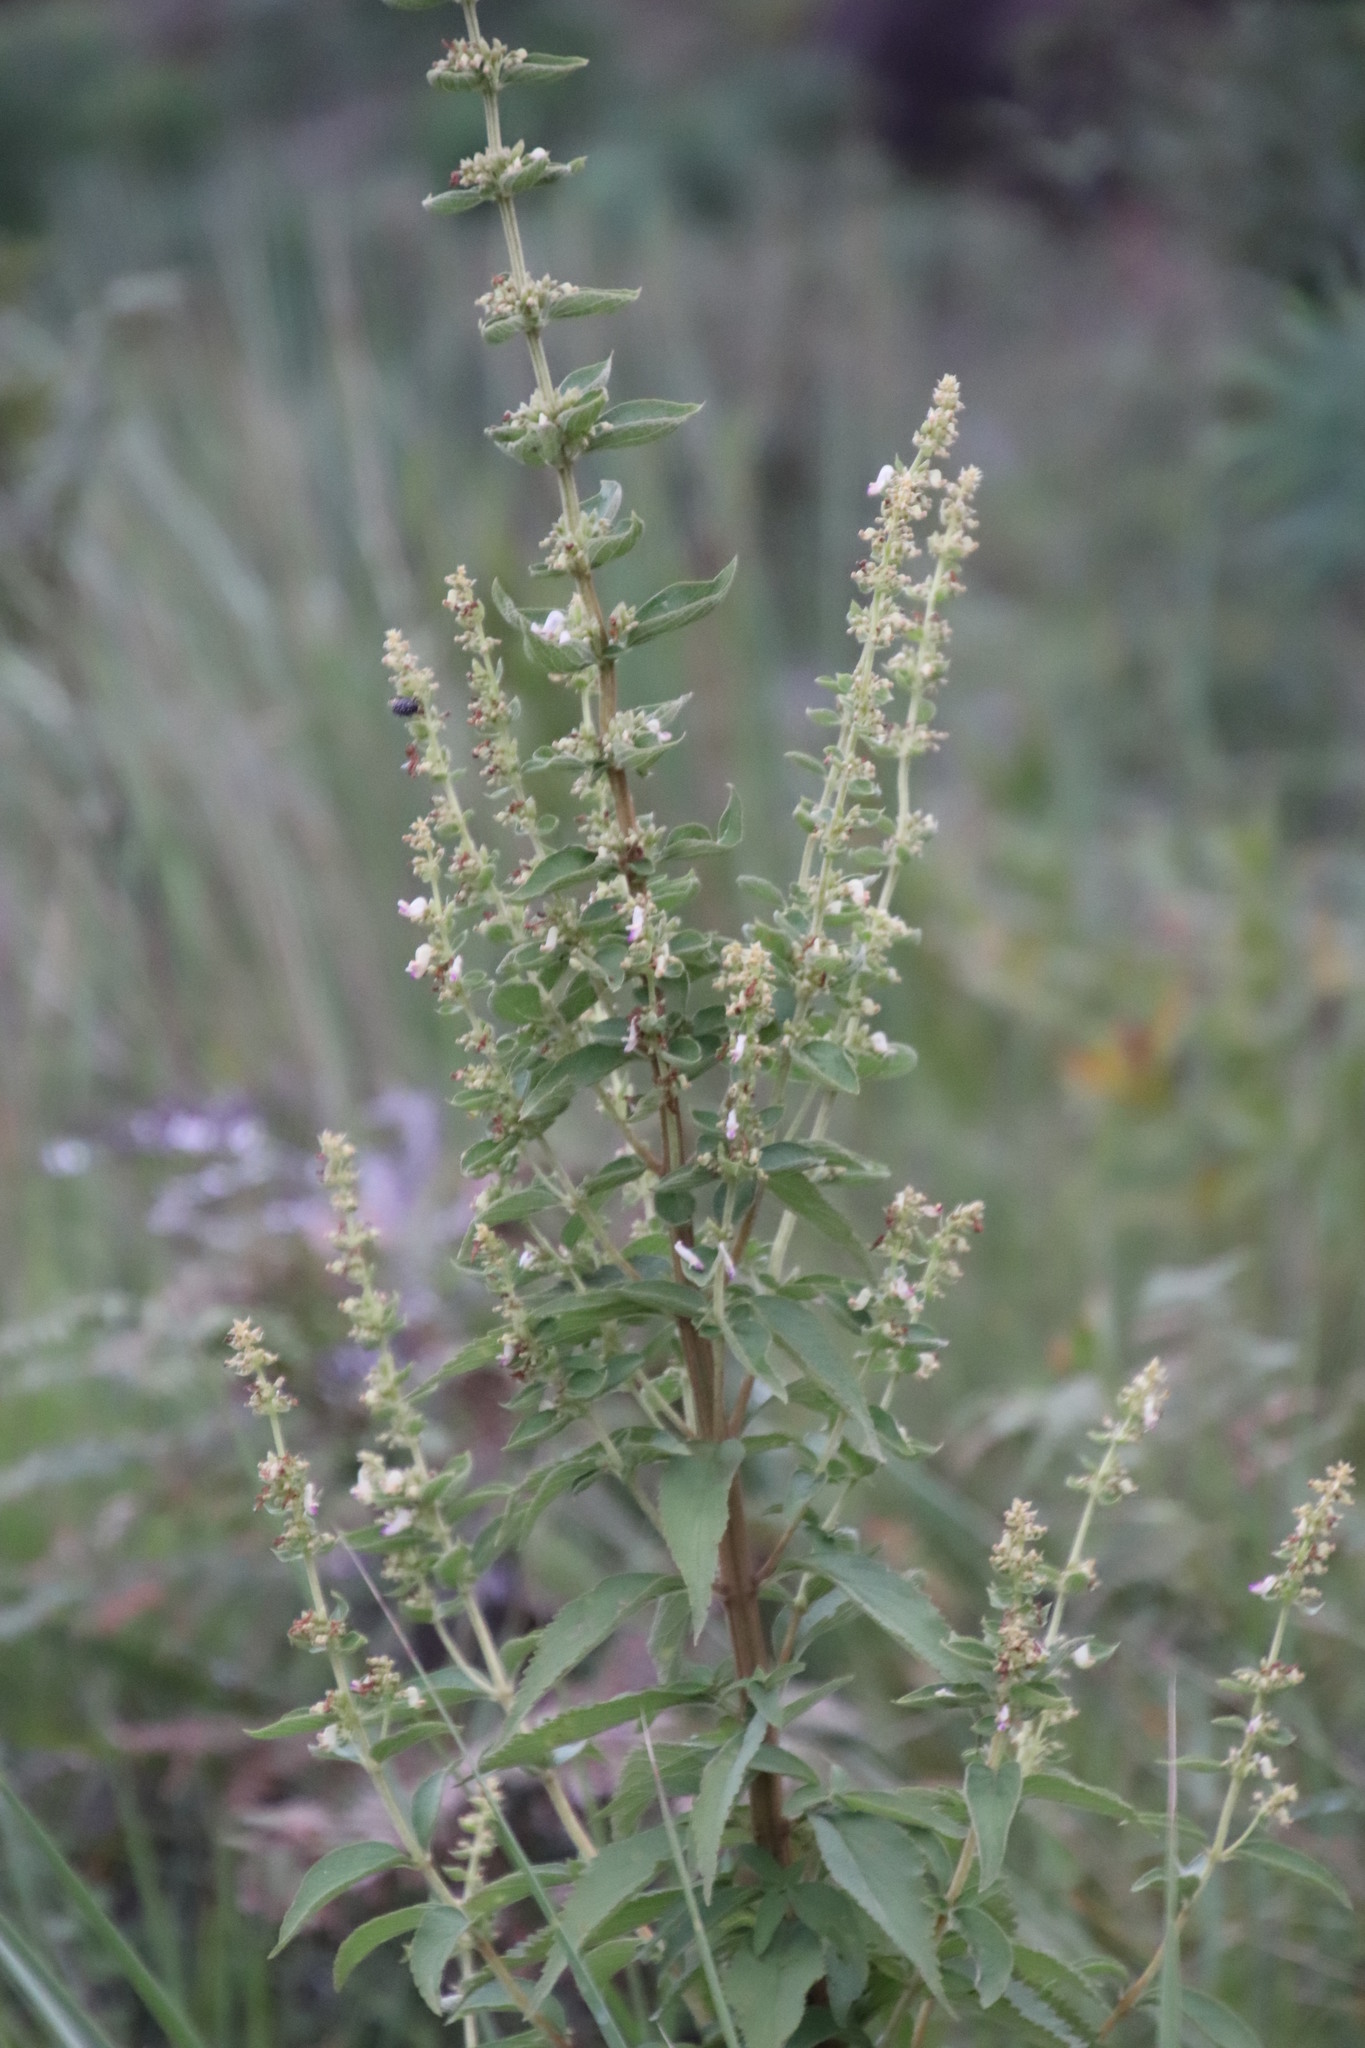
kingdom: Plantae
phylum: Tracheophyta
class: Magnoliopsida
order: Lamiales
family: Lamiaceae
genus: Coleus
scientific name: Coleus calycinus
